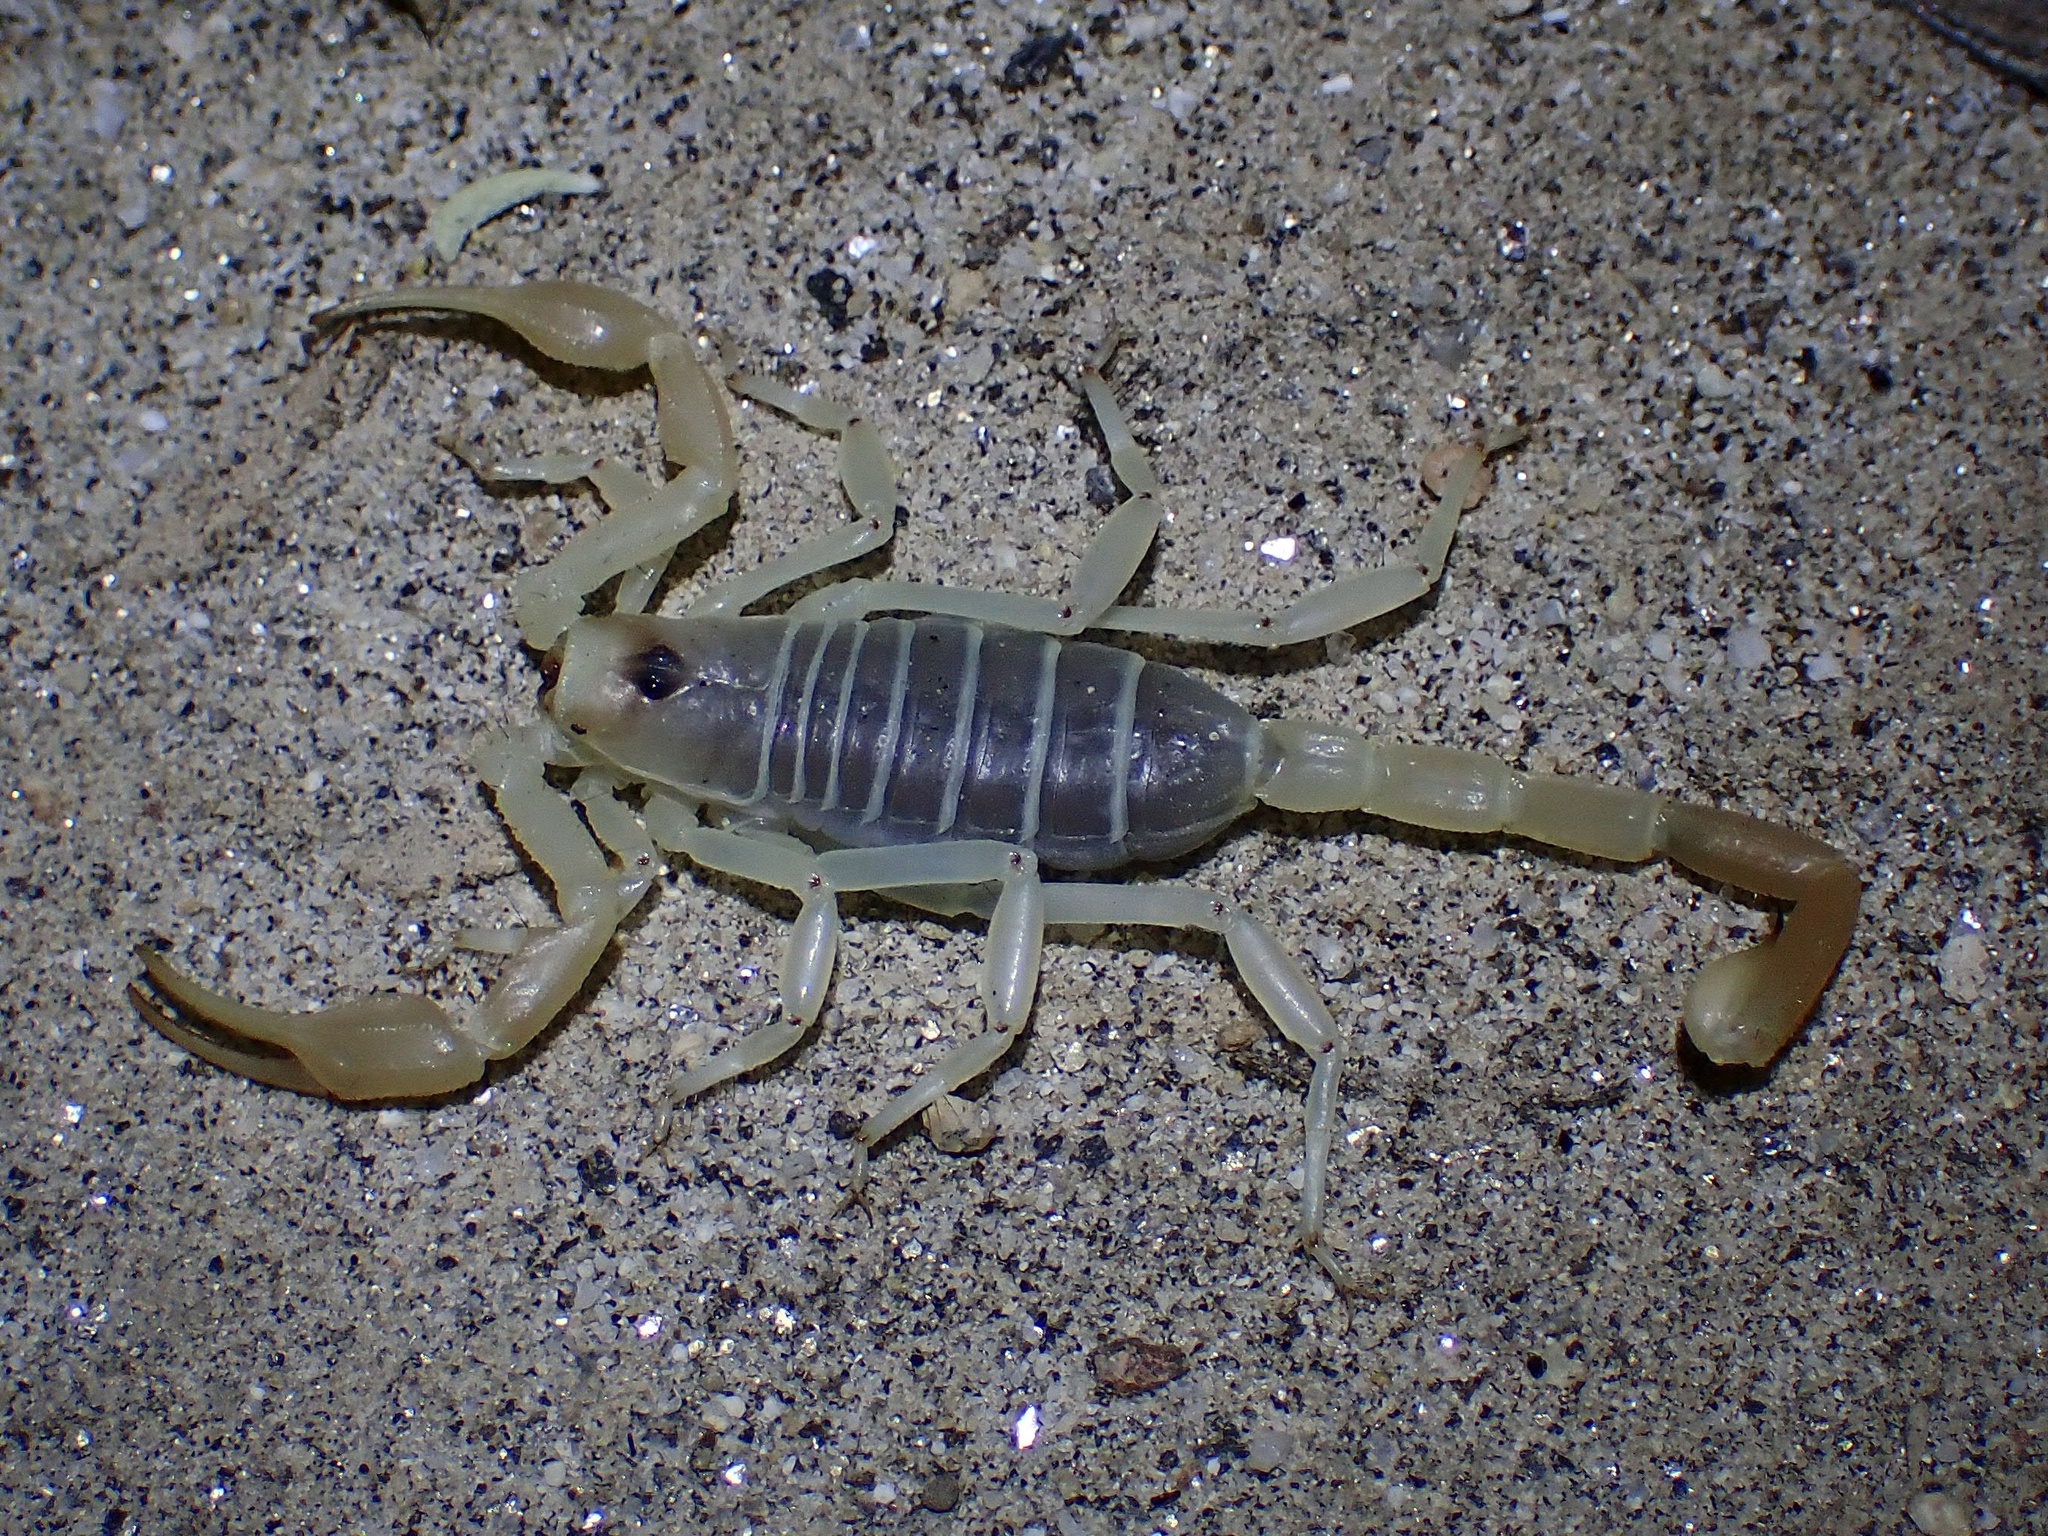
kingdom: Animalia
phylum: Arthropoda
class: Arachnida
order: Scorpiones
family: Vaejovidae
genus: Smeringurus
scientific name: Smeringurus mesaensis
